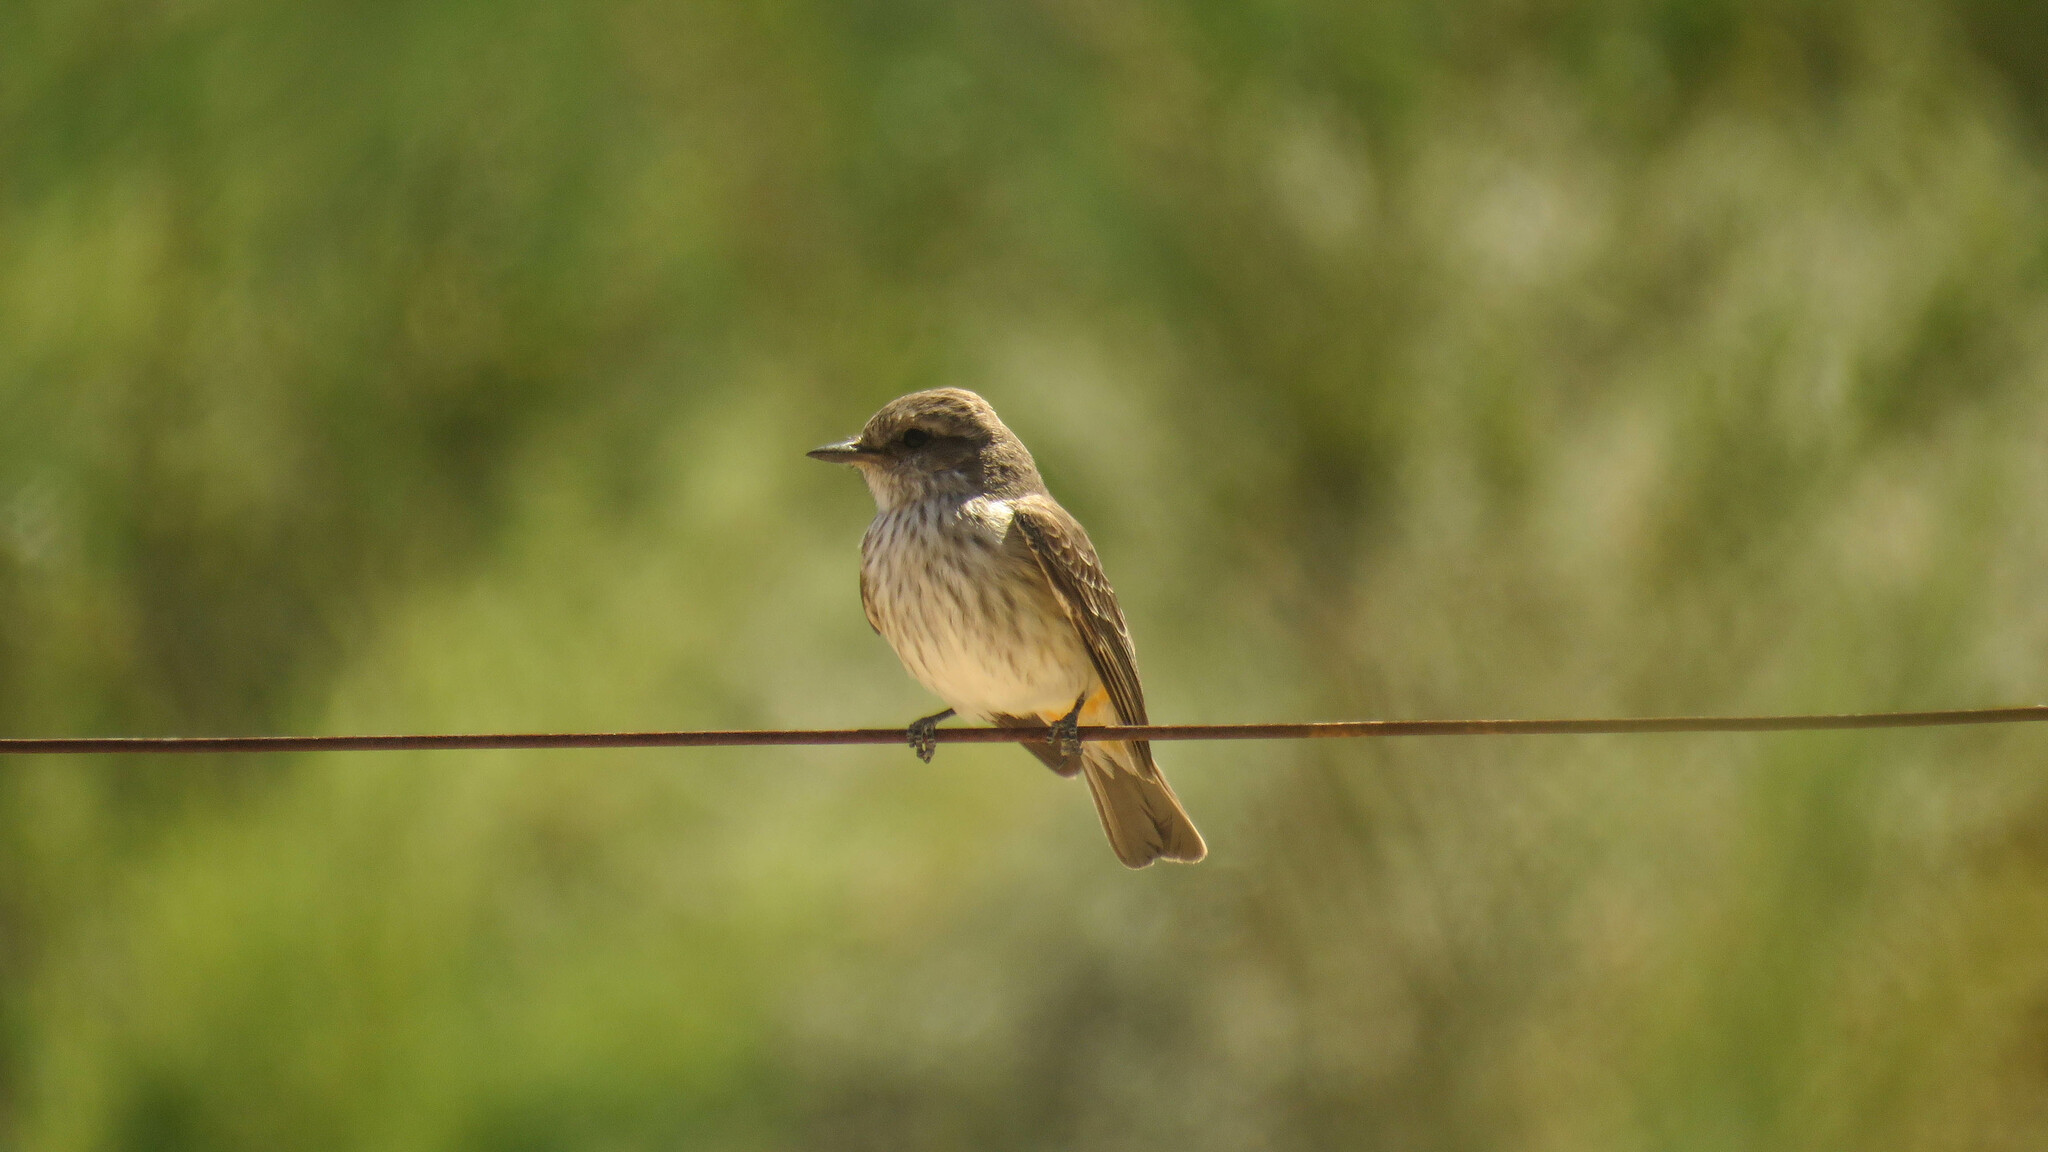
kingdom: Animalia
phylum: Chordata
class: Aves
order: Passeriformes
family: Tyrannidae
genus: Pyrocephalus
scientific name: Pyrocephalus rubinus
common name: Vermilion flycatcher
